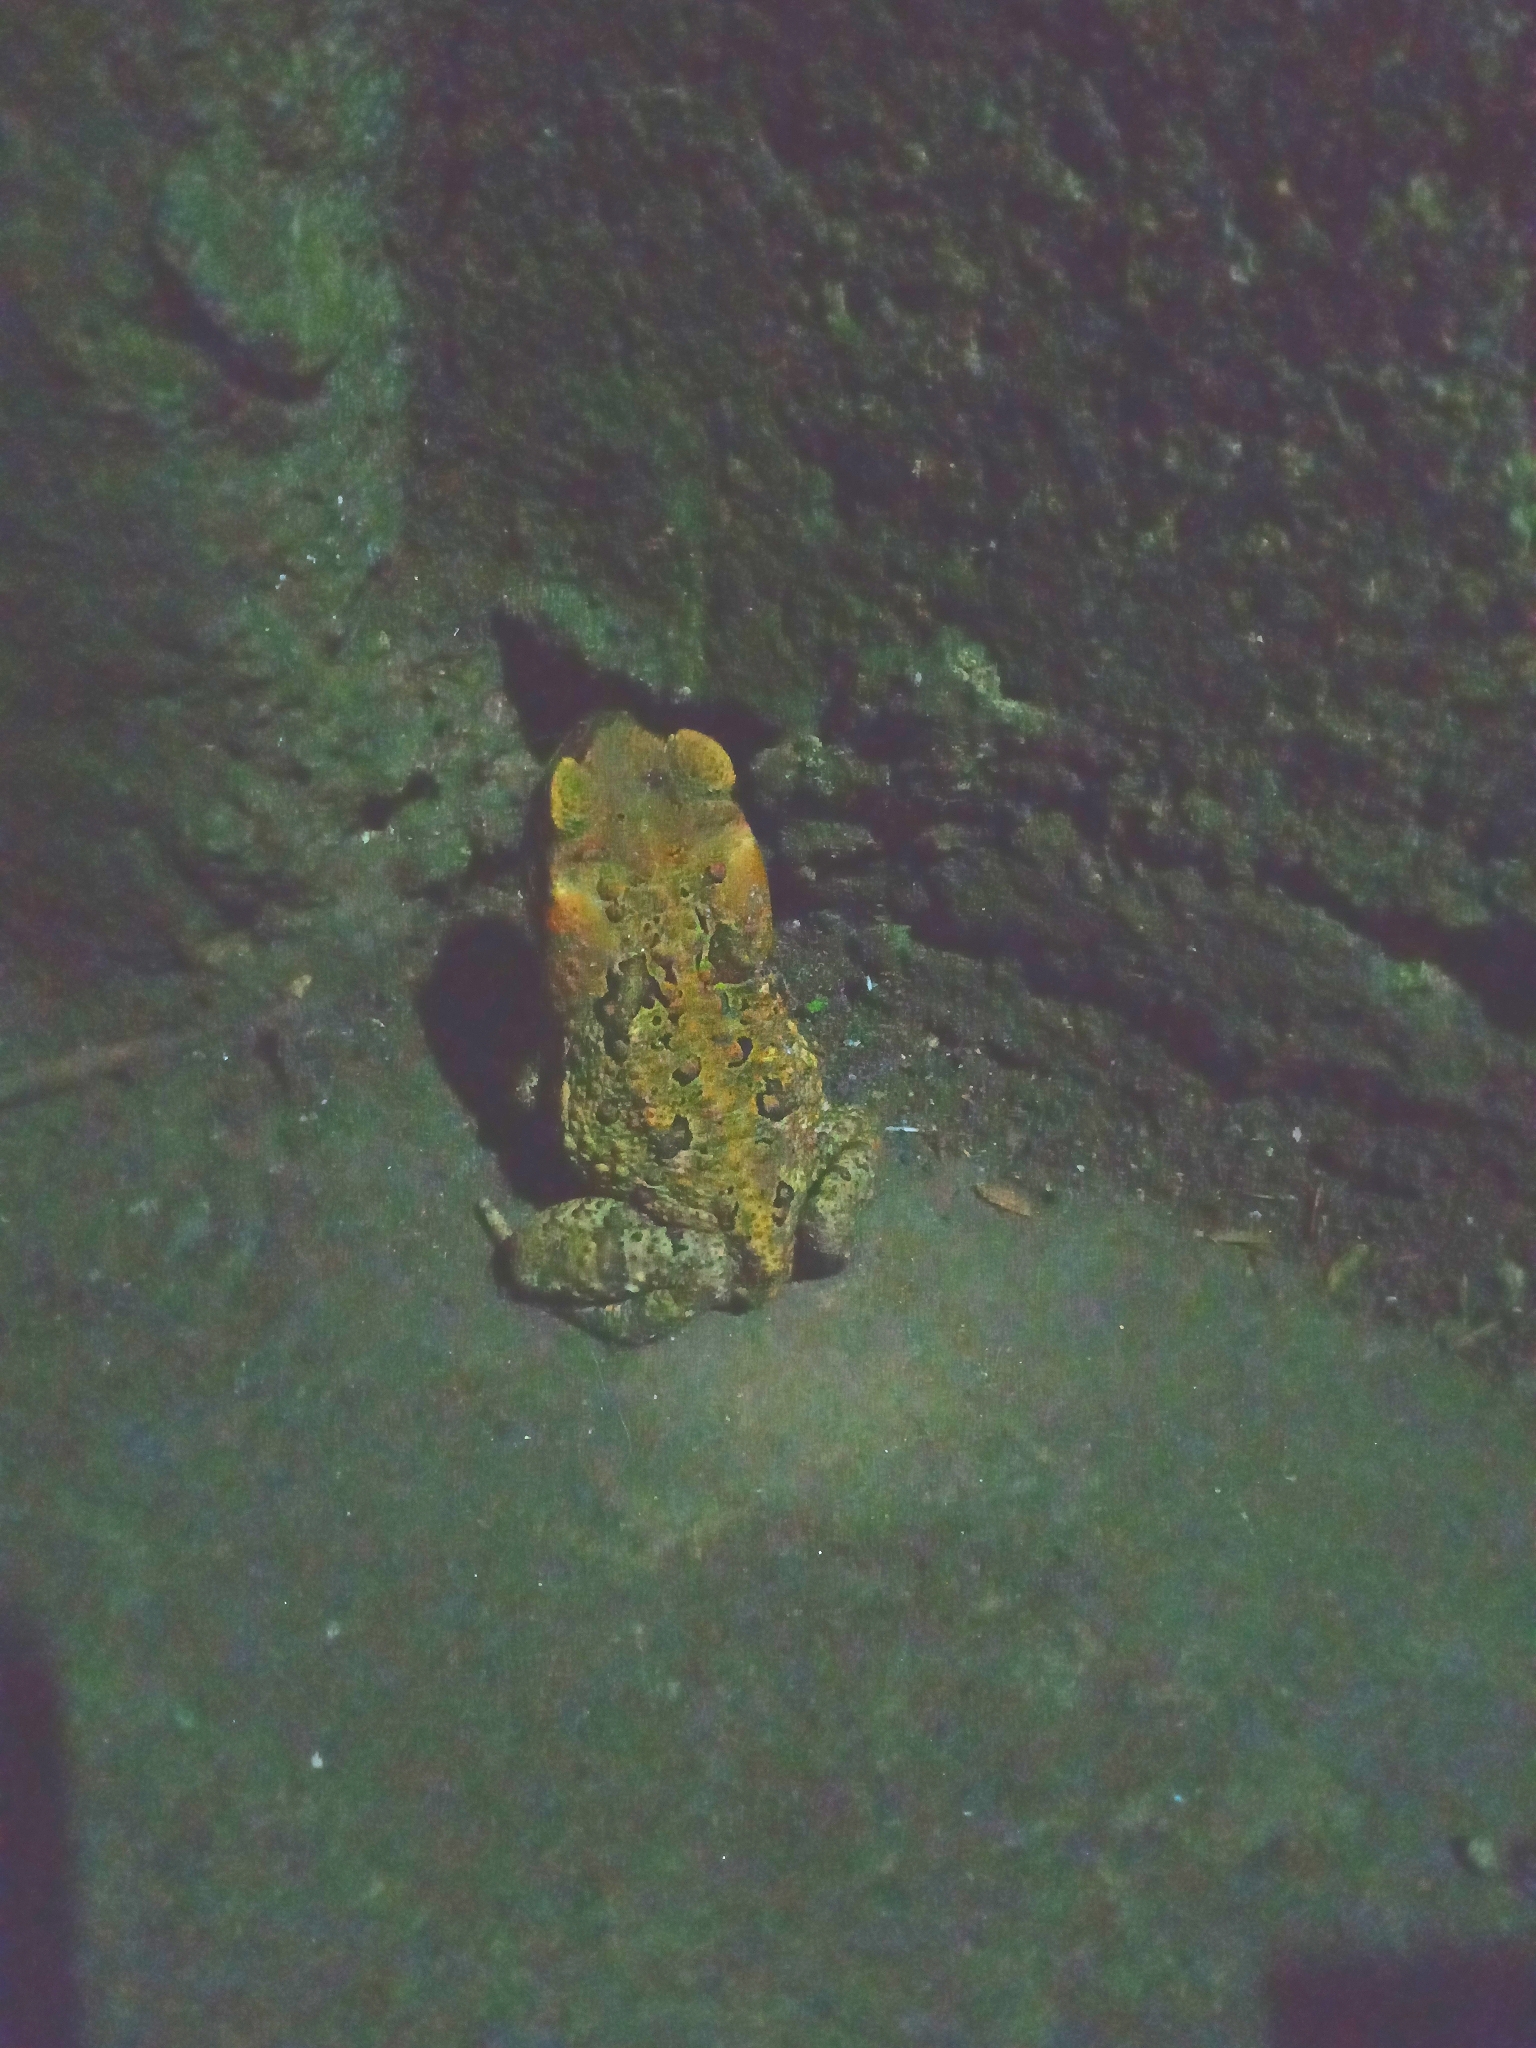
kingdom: Animalia
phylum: Chordata
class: Amphibia
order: Anura
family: Bufonidae
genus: Rhinella
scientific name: Rhinella marina
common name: Cane toad
